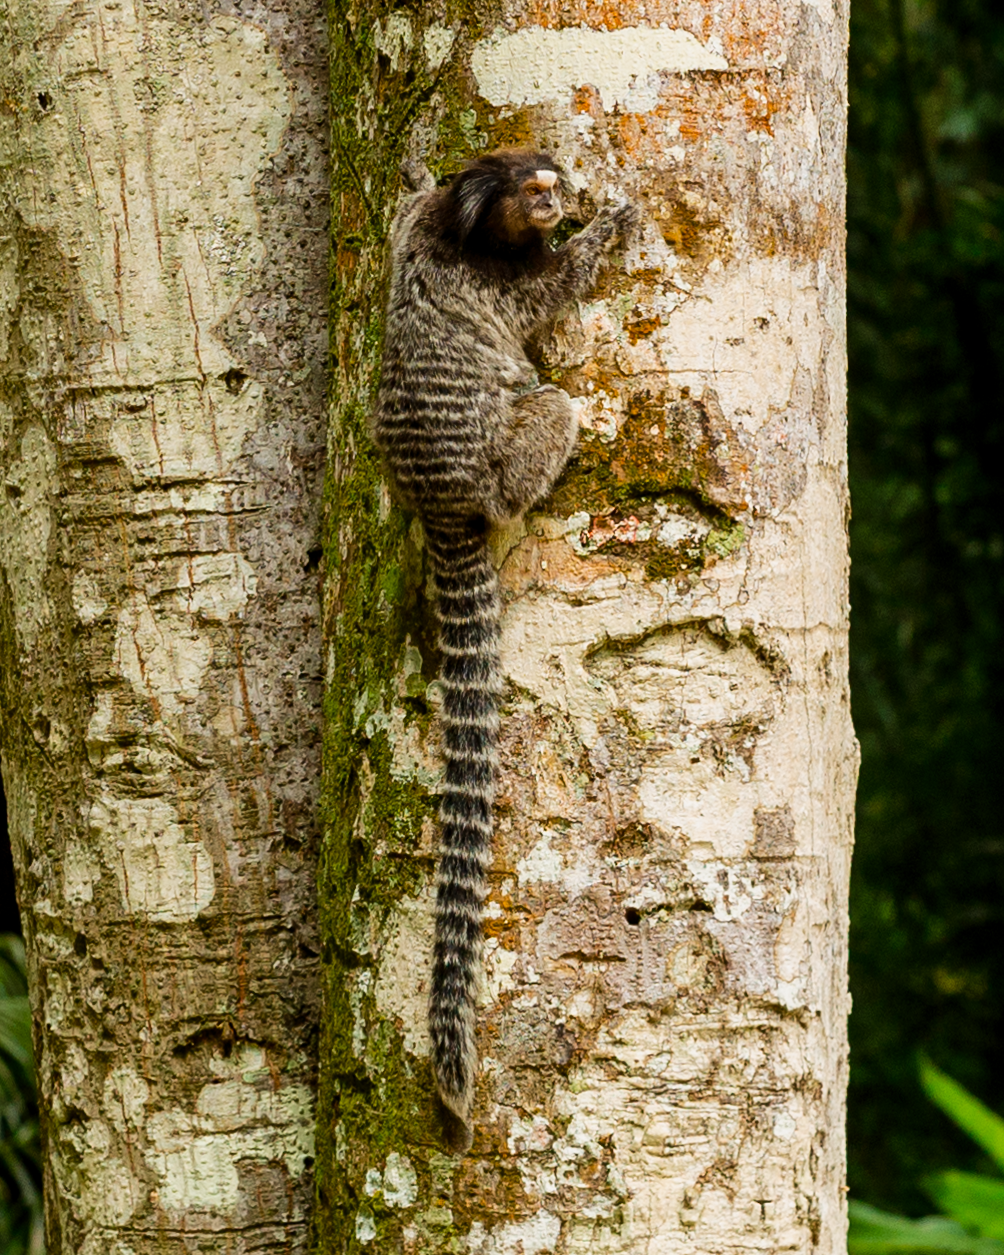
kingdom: Animalia
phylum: Chordata
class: Mammalia
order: Primates
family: Callitrichidae
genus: Callithrix
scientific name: Callithrix penicillata
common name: Black-tufted marmoset
